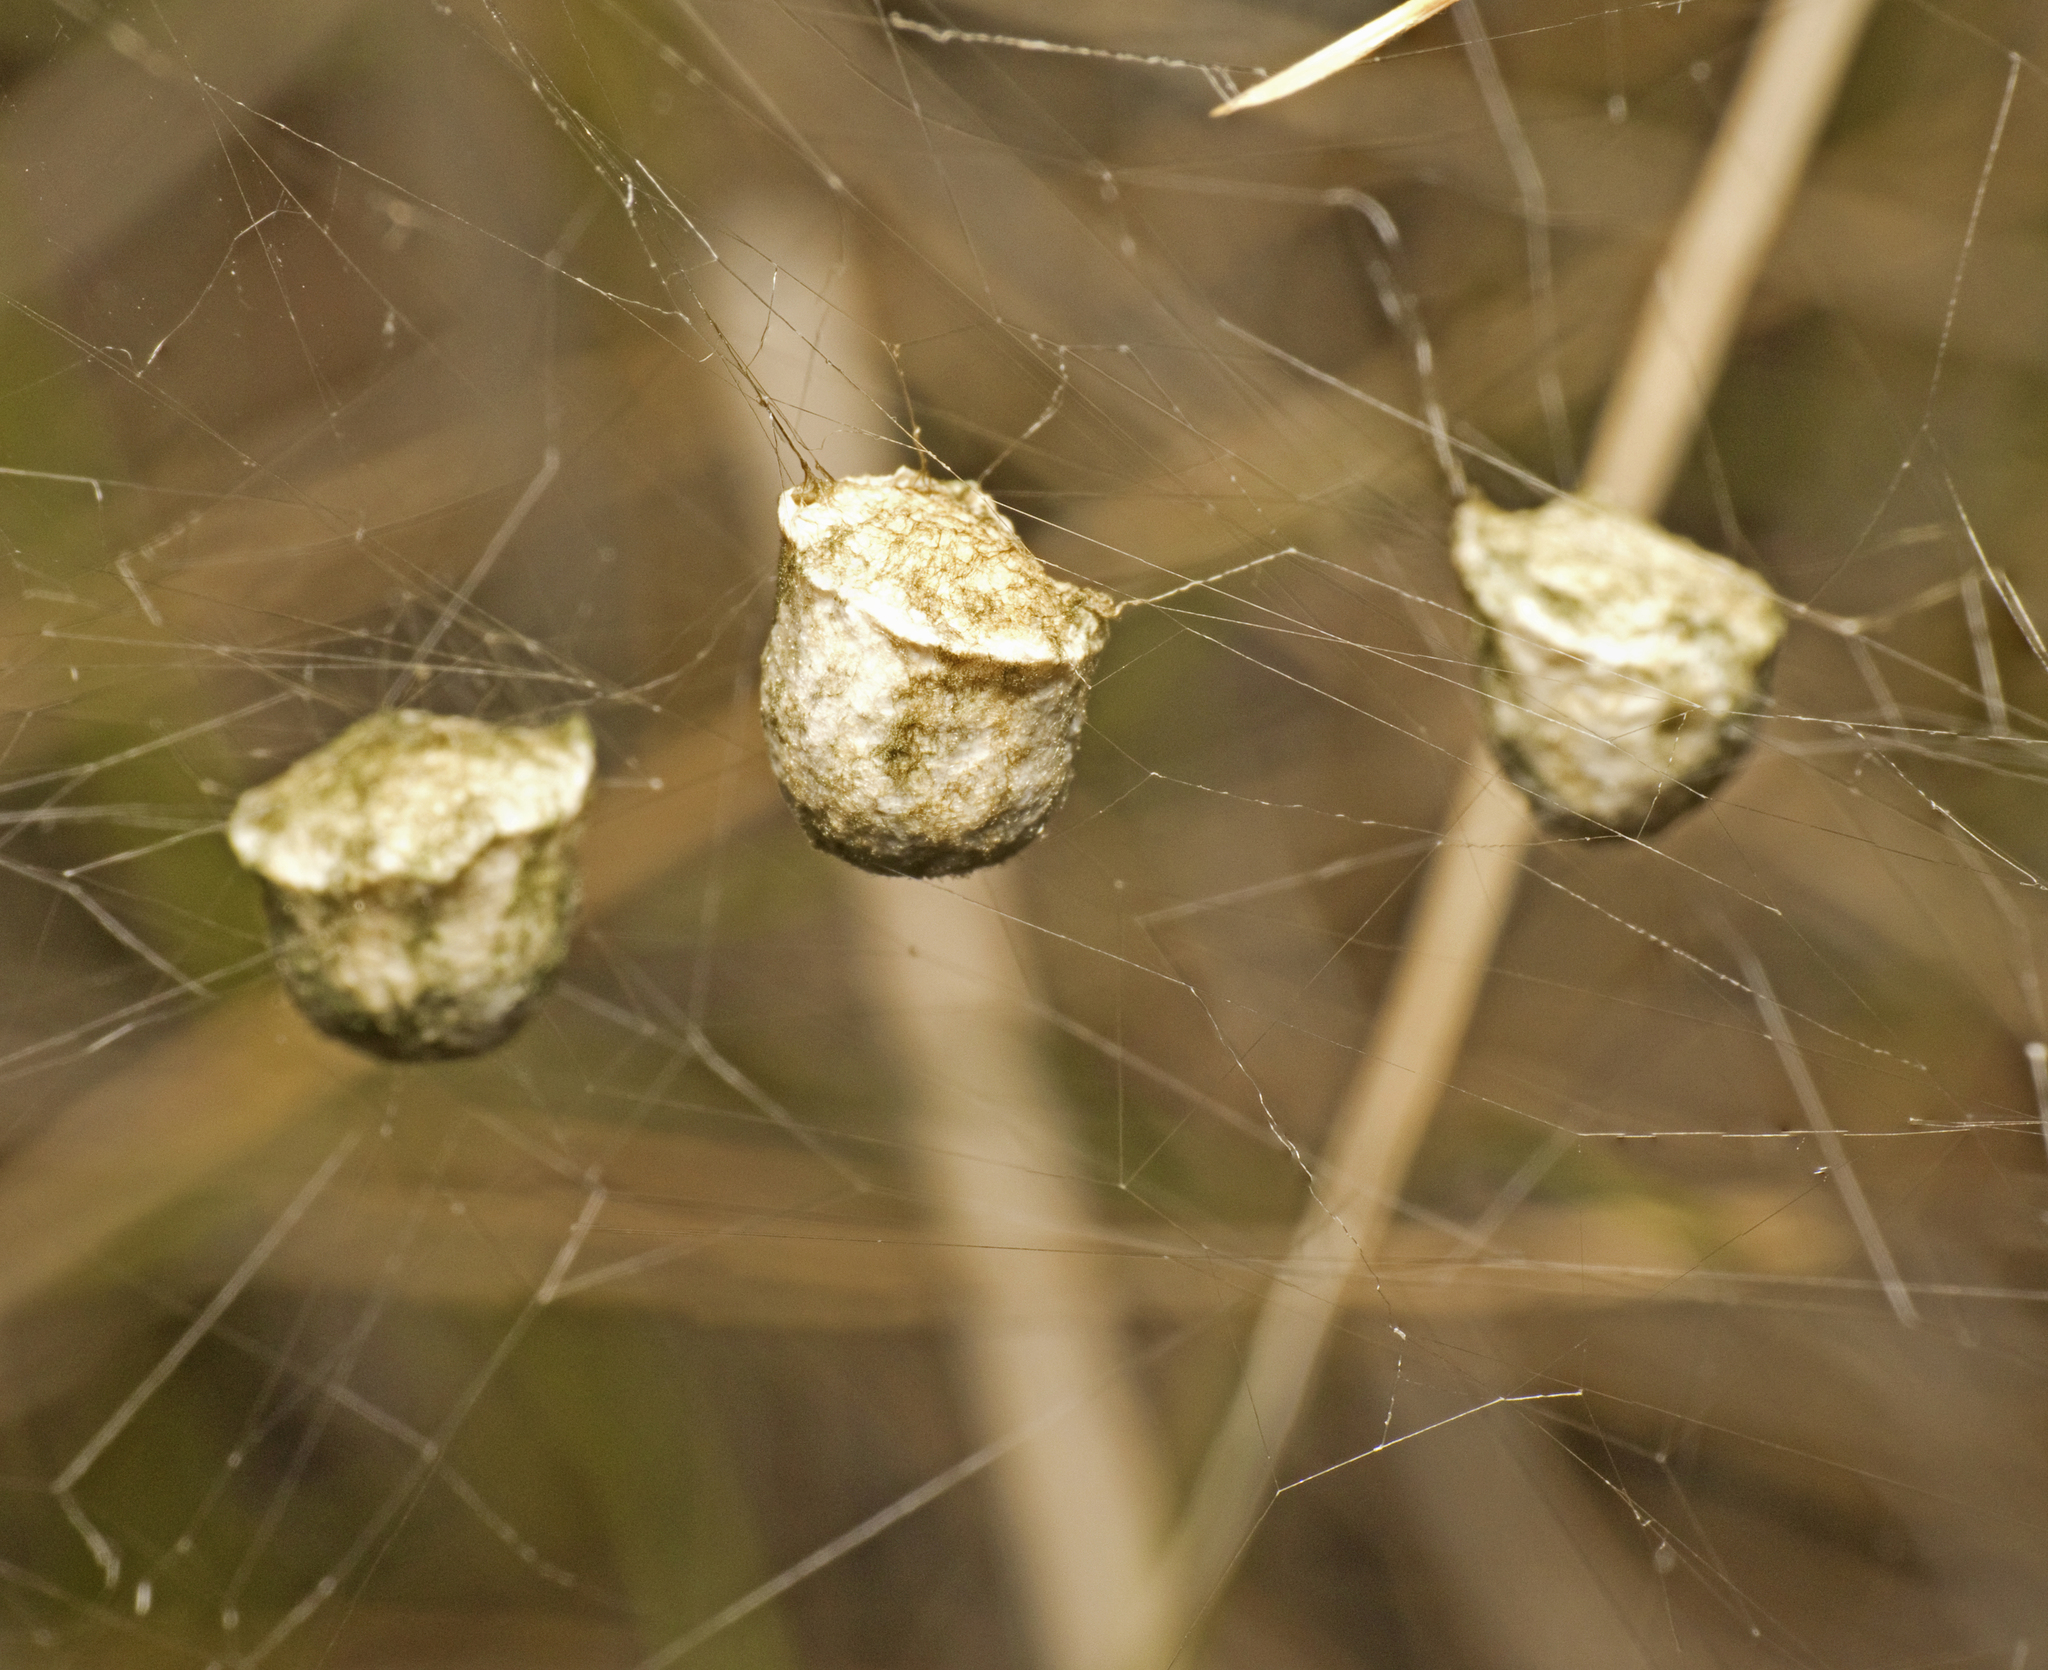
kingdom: Animalia
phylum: Arthropoda
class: Arachnida
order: Araneae
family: Araneidae
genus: Argiope
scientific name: Argiope protensa
